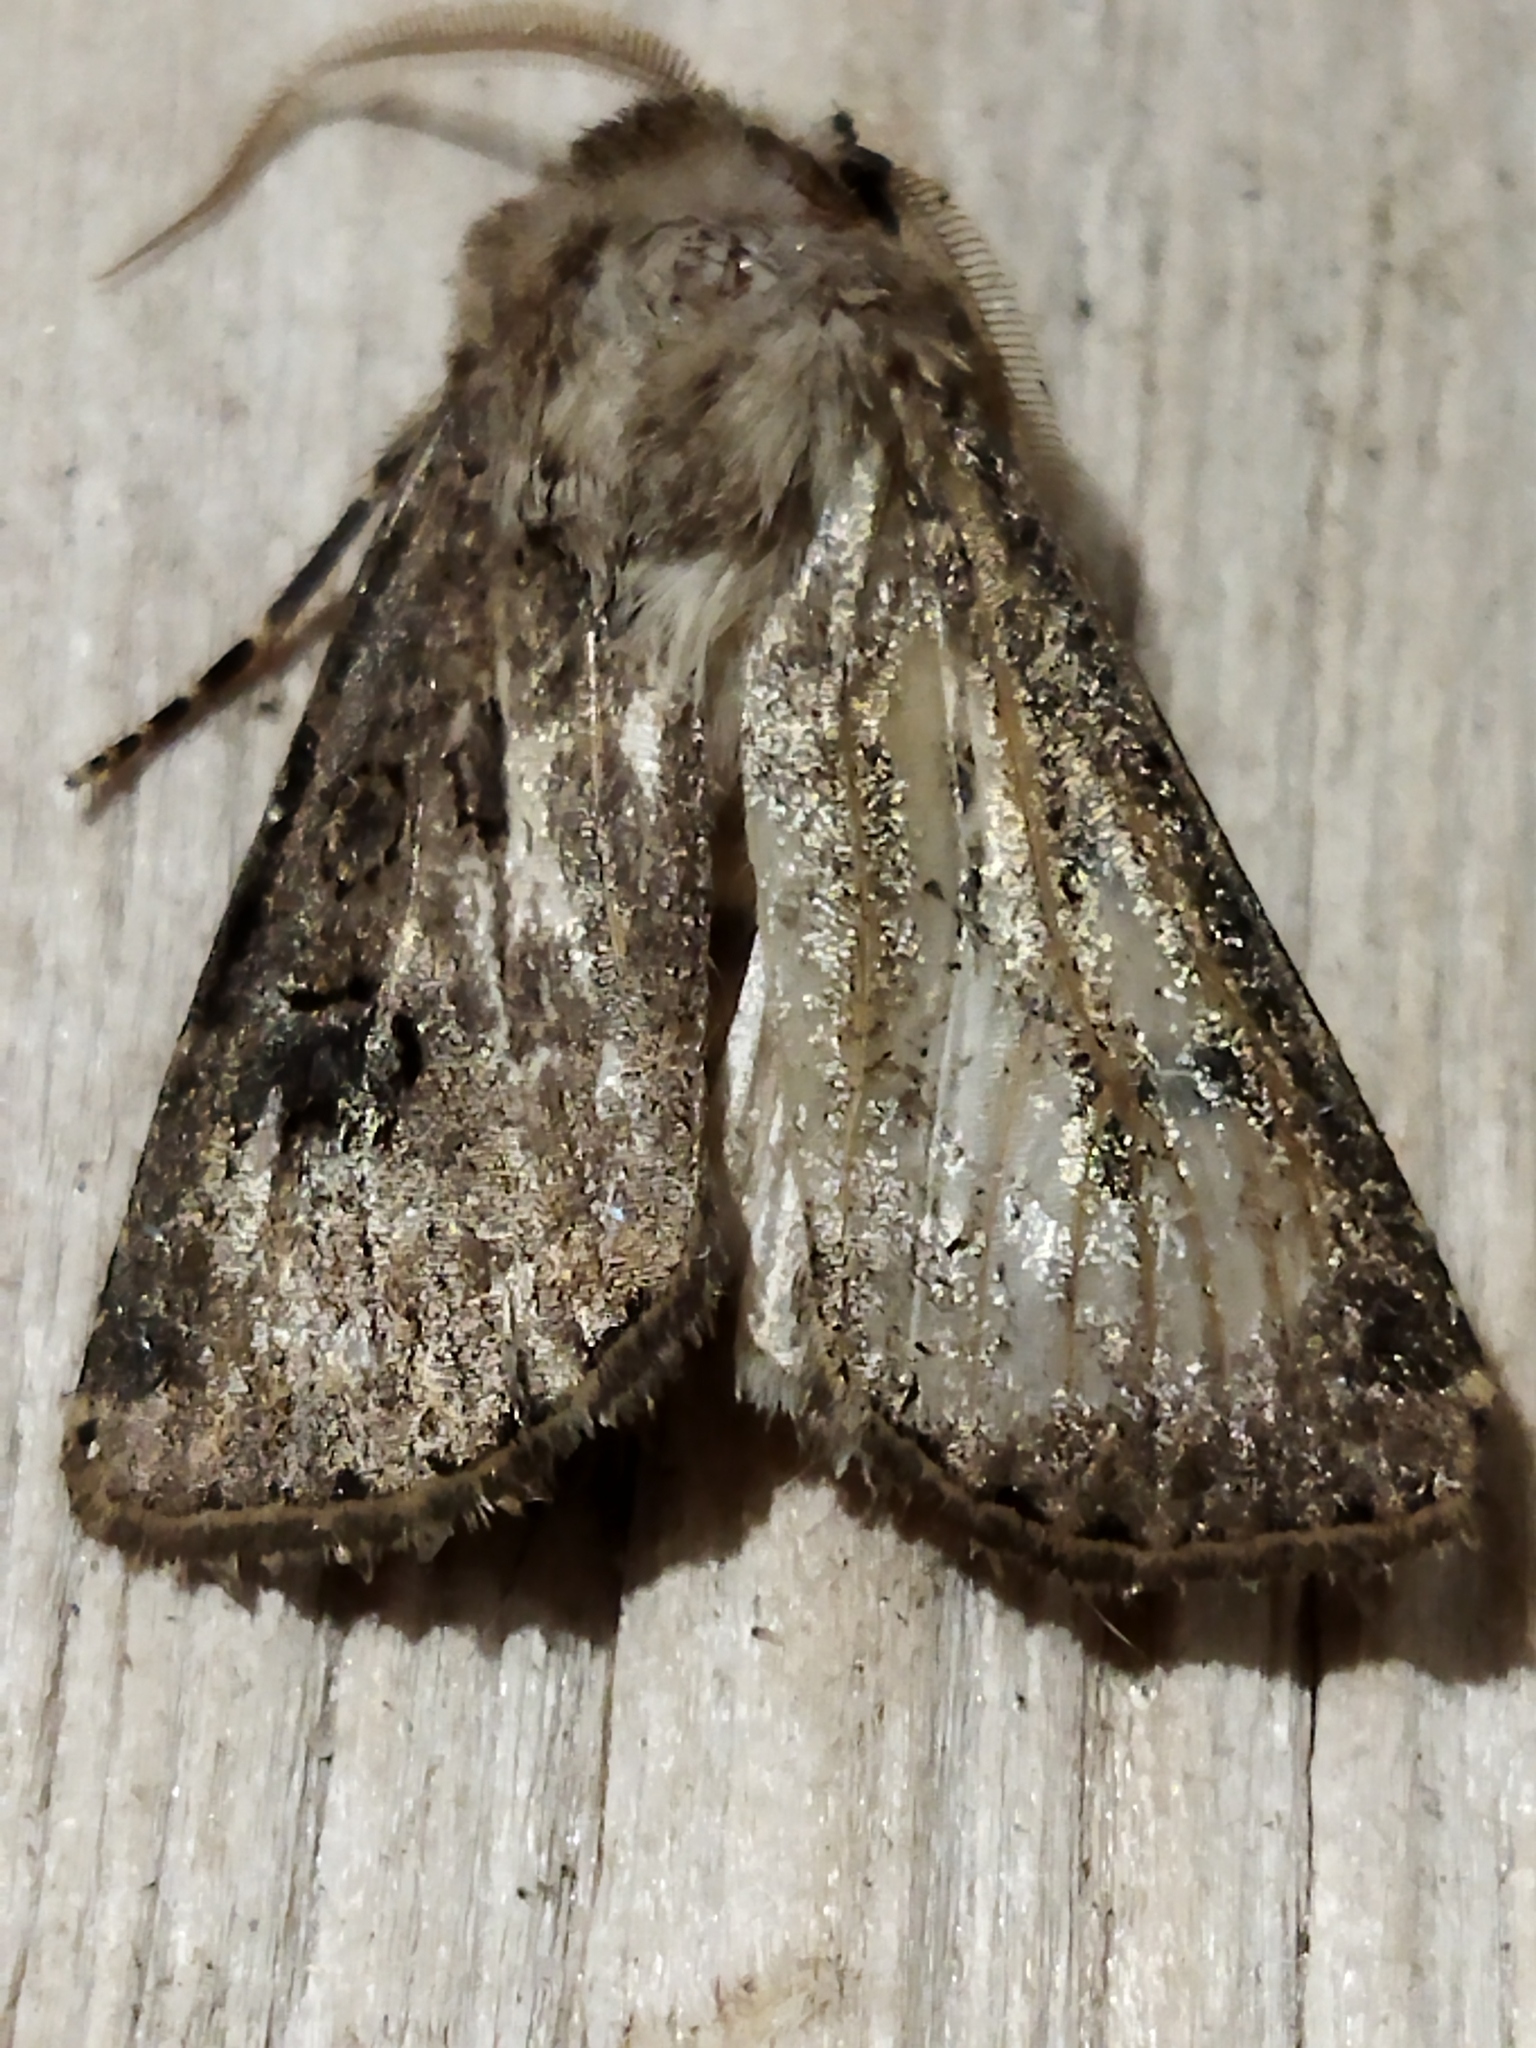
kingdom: Animalia
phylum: Arthropoda
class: Insecta
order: Lepidoptera
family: Noctuidae
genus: Agrotis
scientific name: Agrotis bigramma
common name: Great dart
